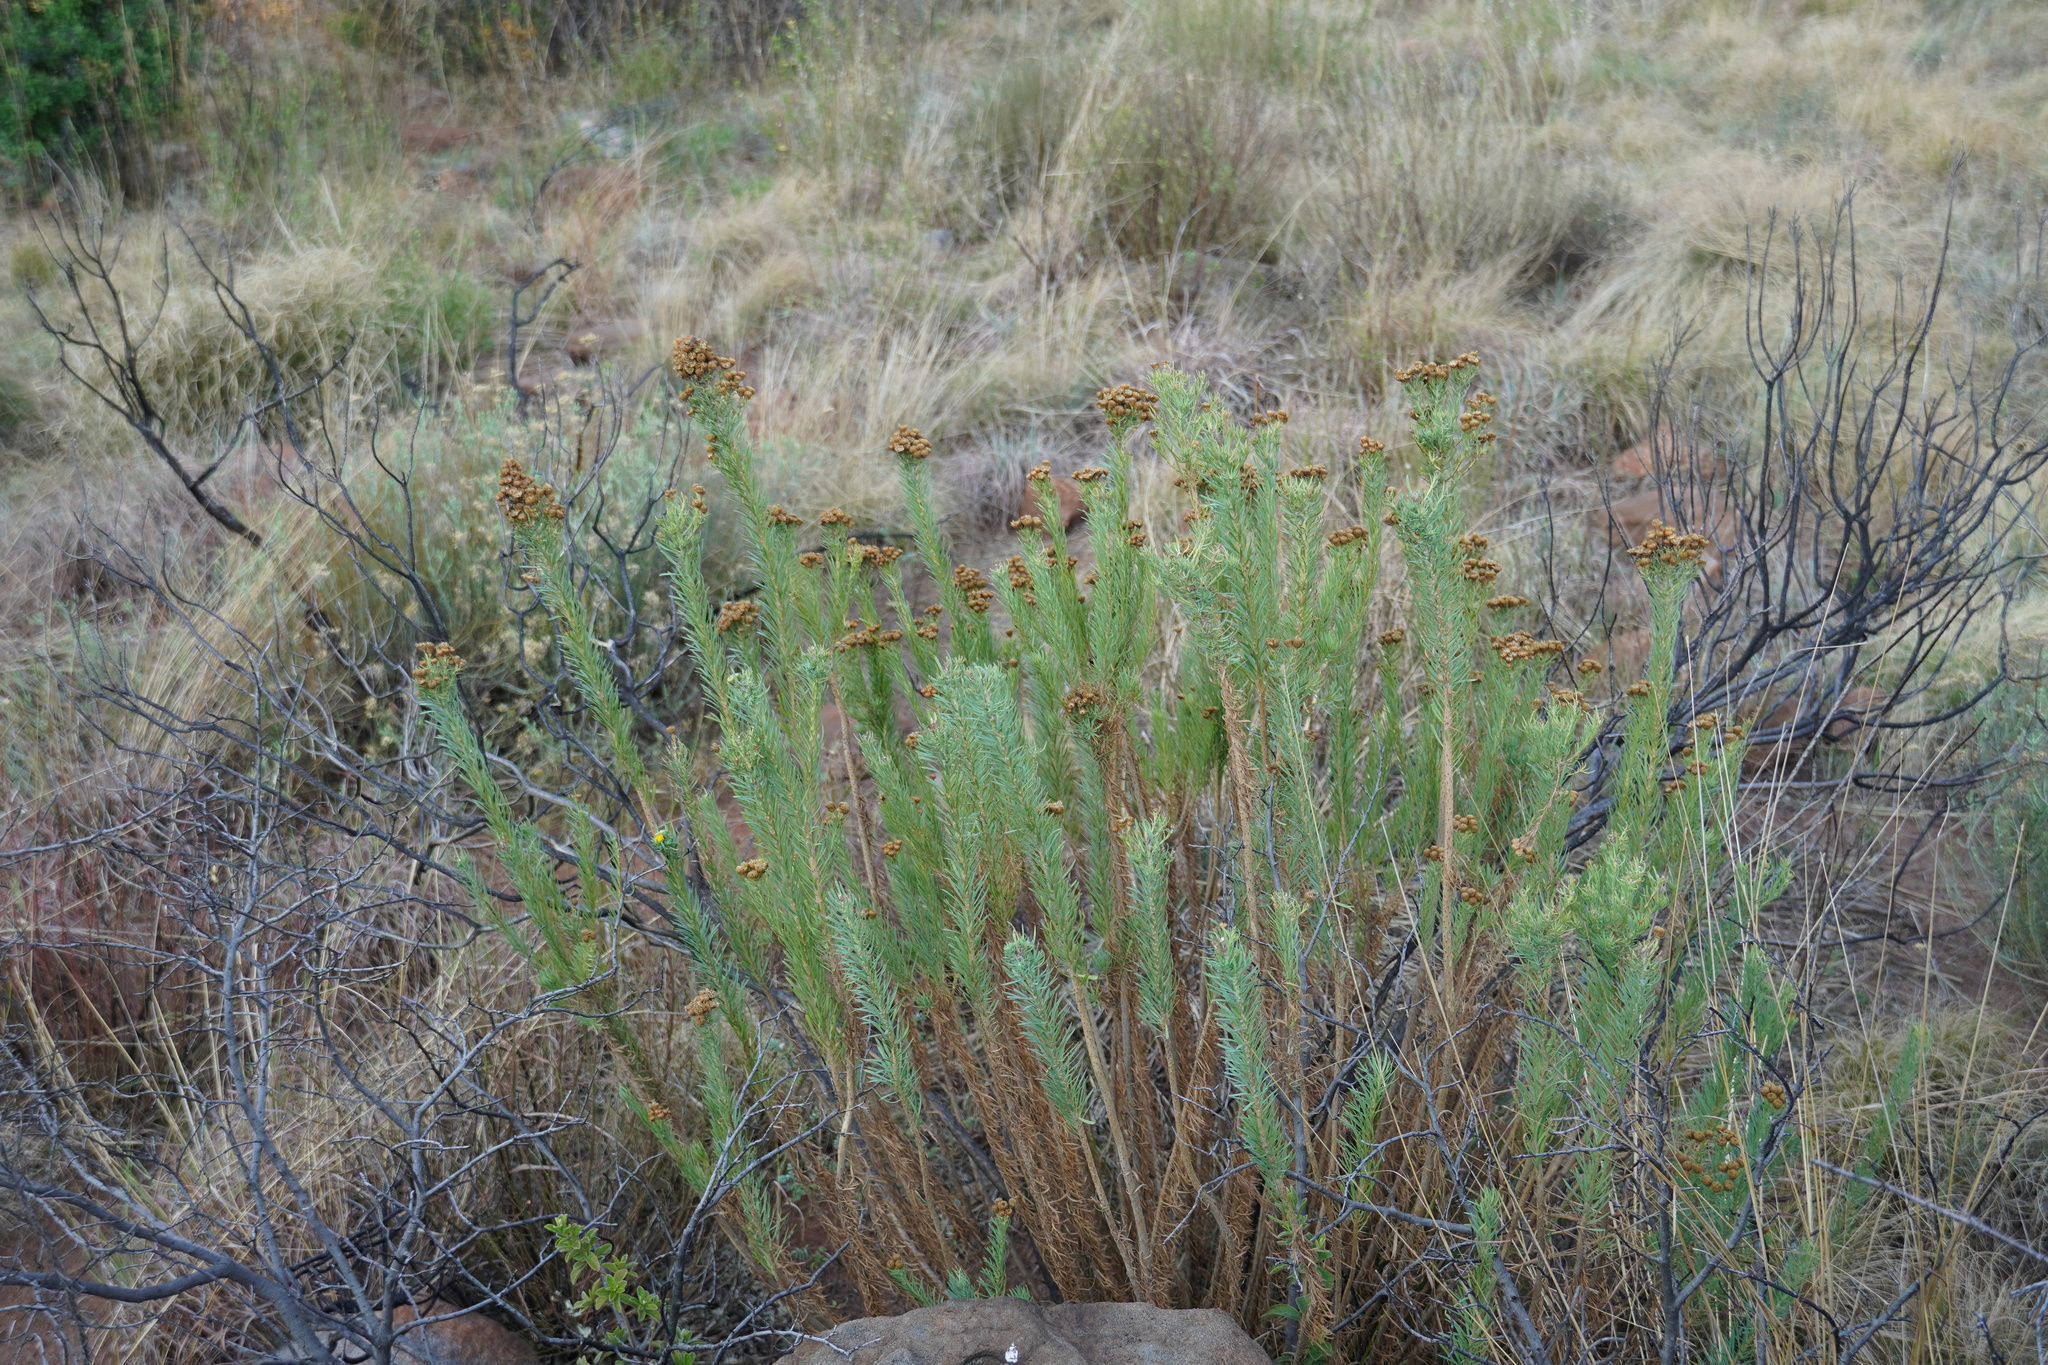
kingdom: Plantae
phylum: Tracheophyta
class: Magnoliopsida
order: Asterales
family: Asteraceae
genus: Phymaspermum
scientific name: Phymaspermum athanasioides
